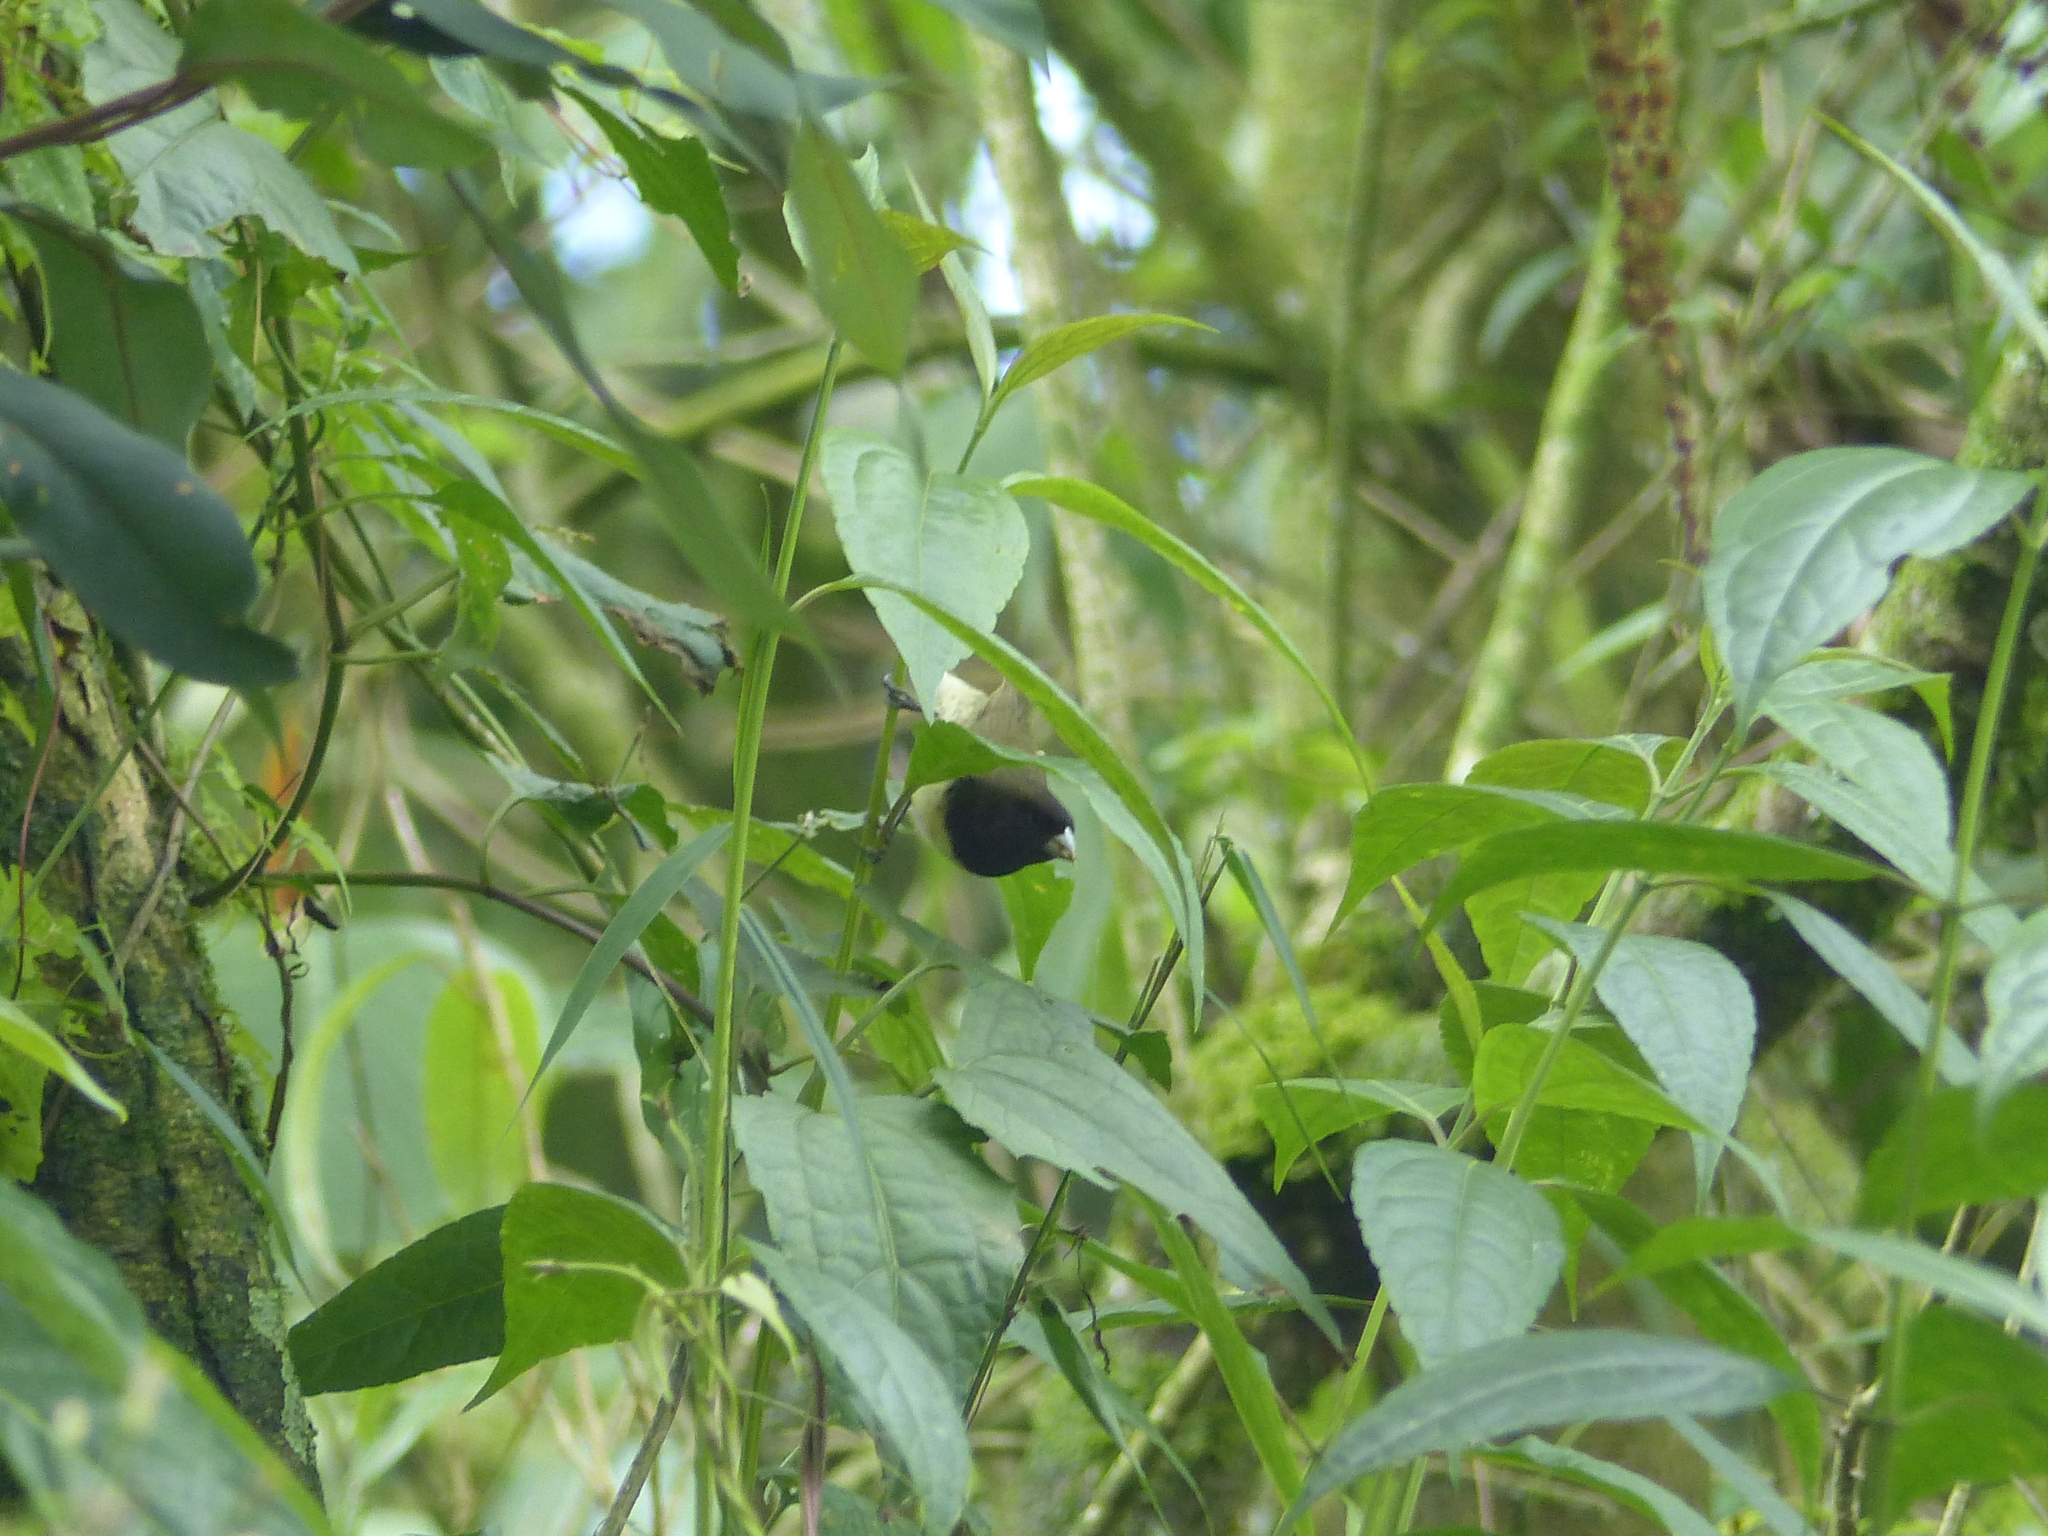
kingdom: Animalia
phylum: Chordata
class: Aves
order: Passeriformes
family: Thraupidae
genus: Sporophila
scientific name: Sporophila nigricollis
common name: Yellow-bellied seedeater
